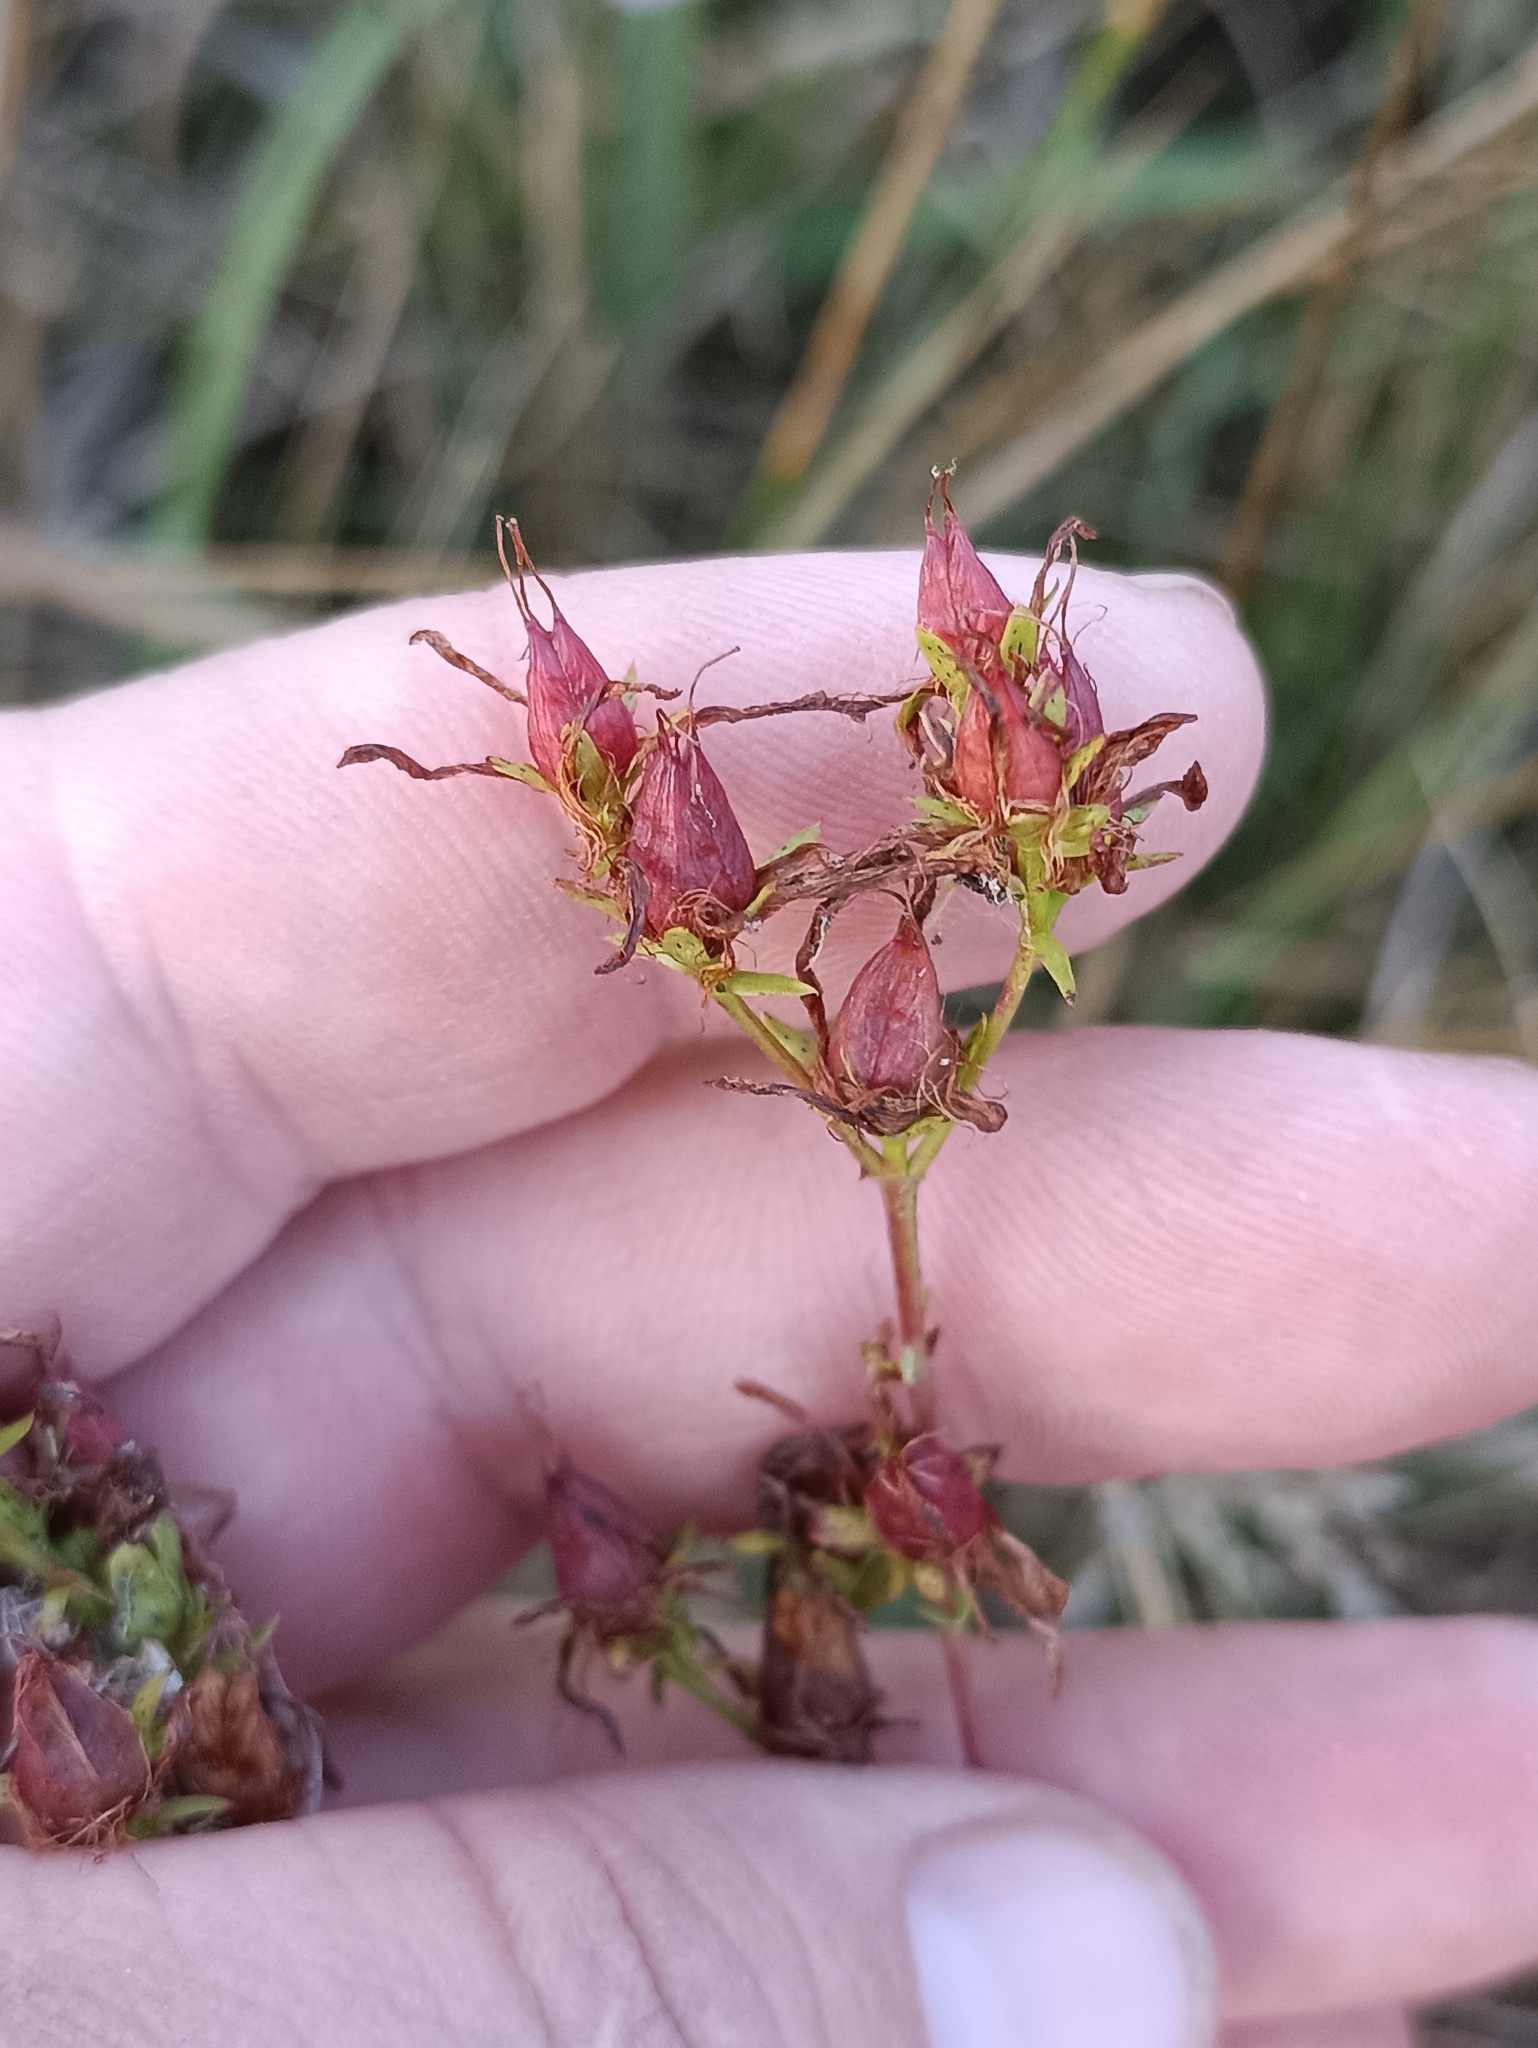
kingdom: Plantae
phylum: Tracheophyta
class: Magnoliopsida
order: Malpighiales
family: Hypericaceae
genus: Hypericum
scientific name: Hypericum perforatum
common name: Common st. johnswort
